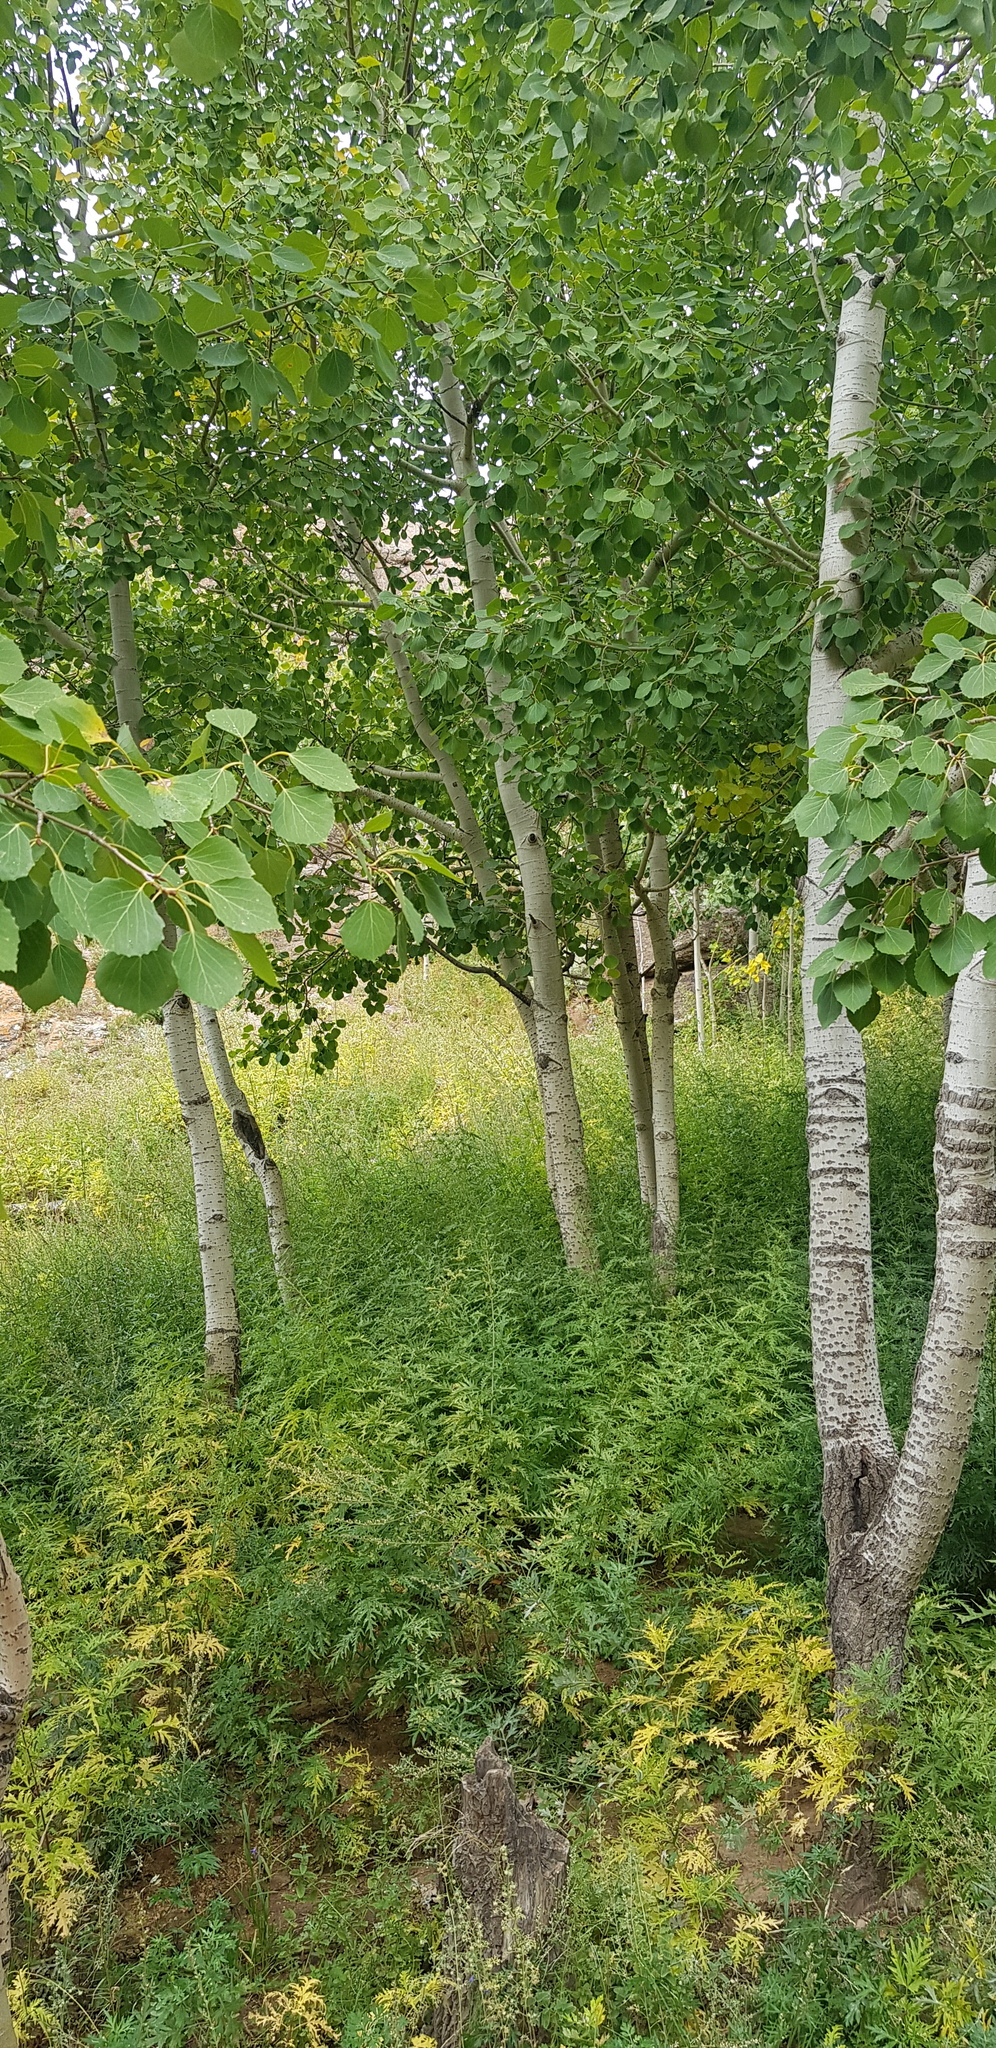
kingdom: Plantae
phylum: Tracheophyta
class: Magnoliopsida
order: Malpighiales
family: Salicaceae
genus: Populus
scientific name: Populus tremula
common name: European aspen
